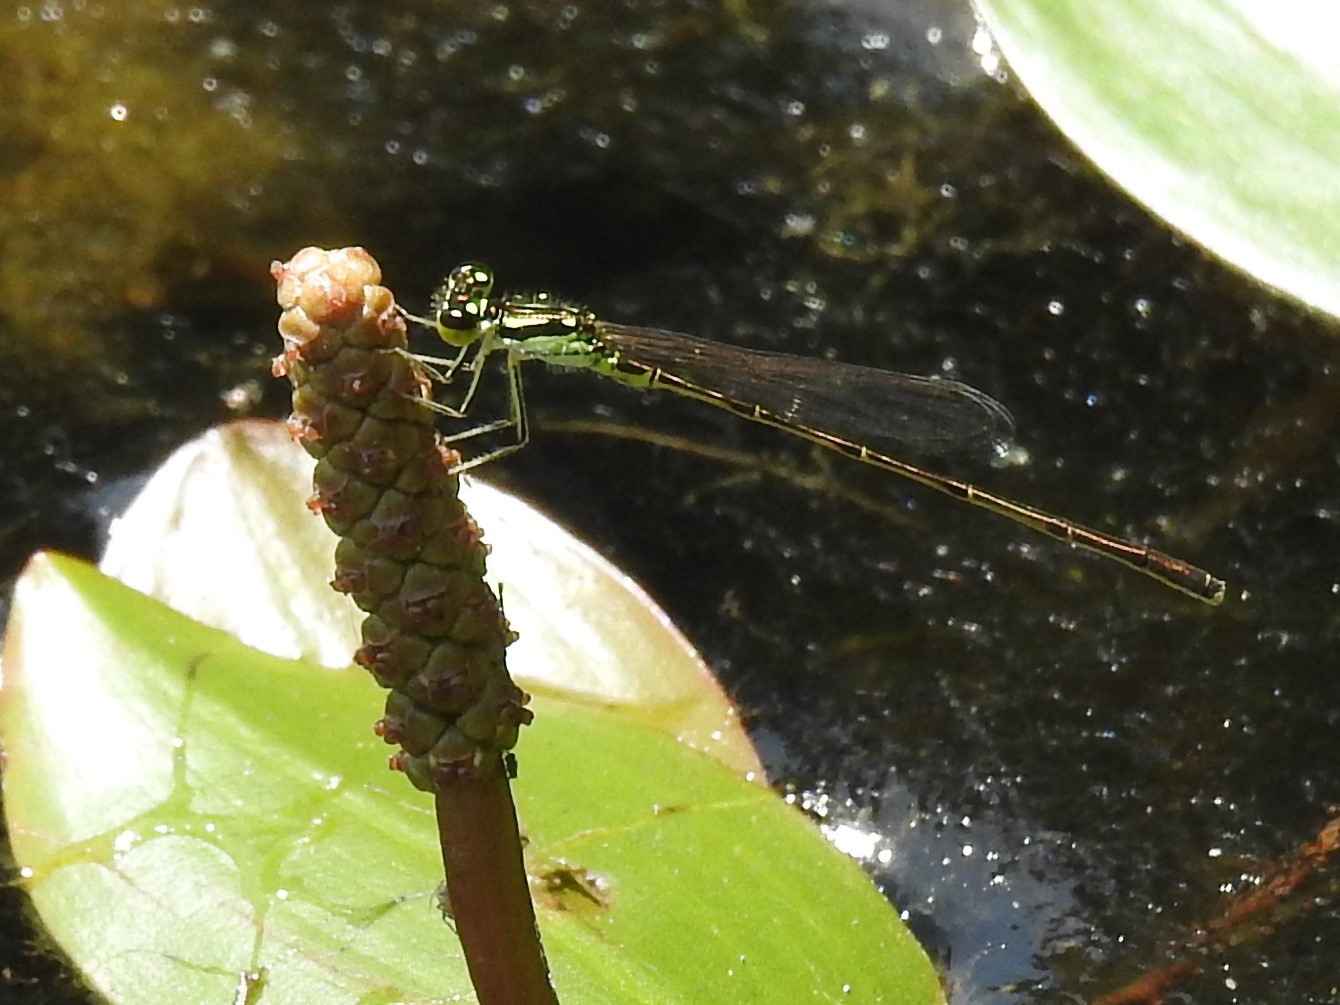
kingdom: Animalia
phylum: Arthropoda
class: Insecta
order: Odonata
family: Coenagrionidae
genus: Ischnura
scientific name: Ischnura posita
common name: Fragile forktail
